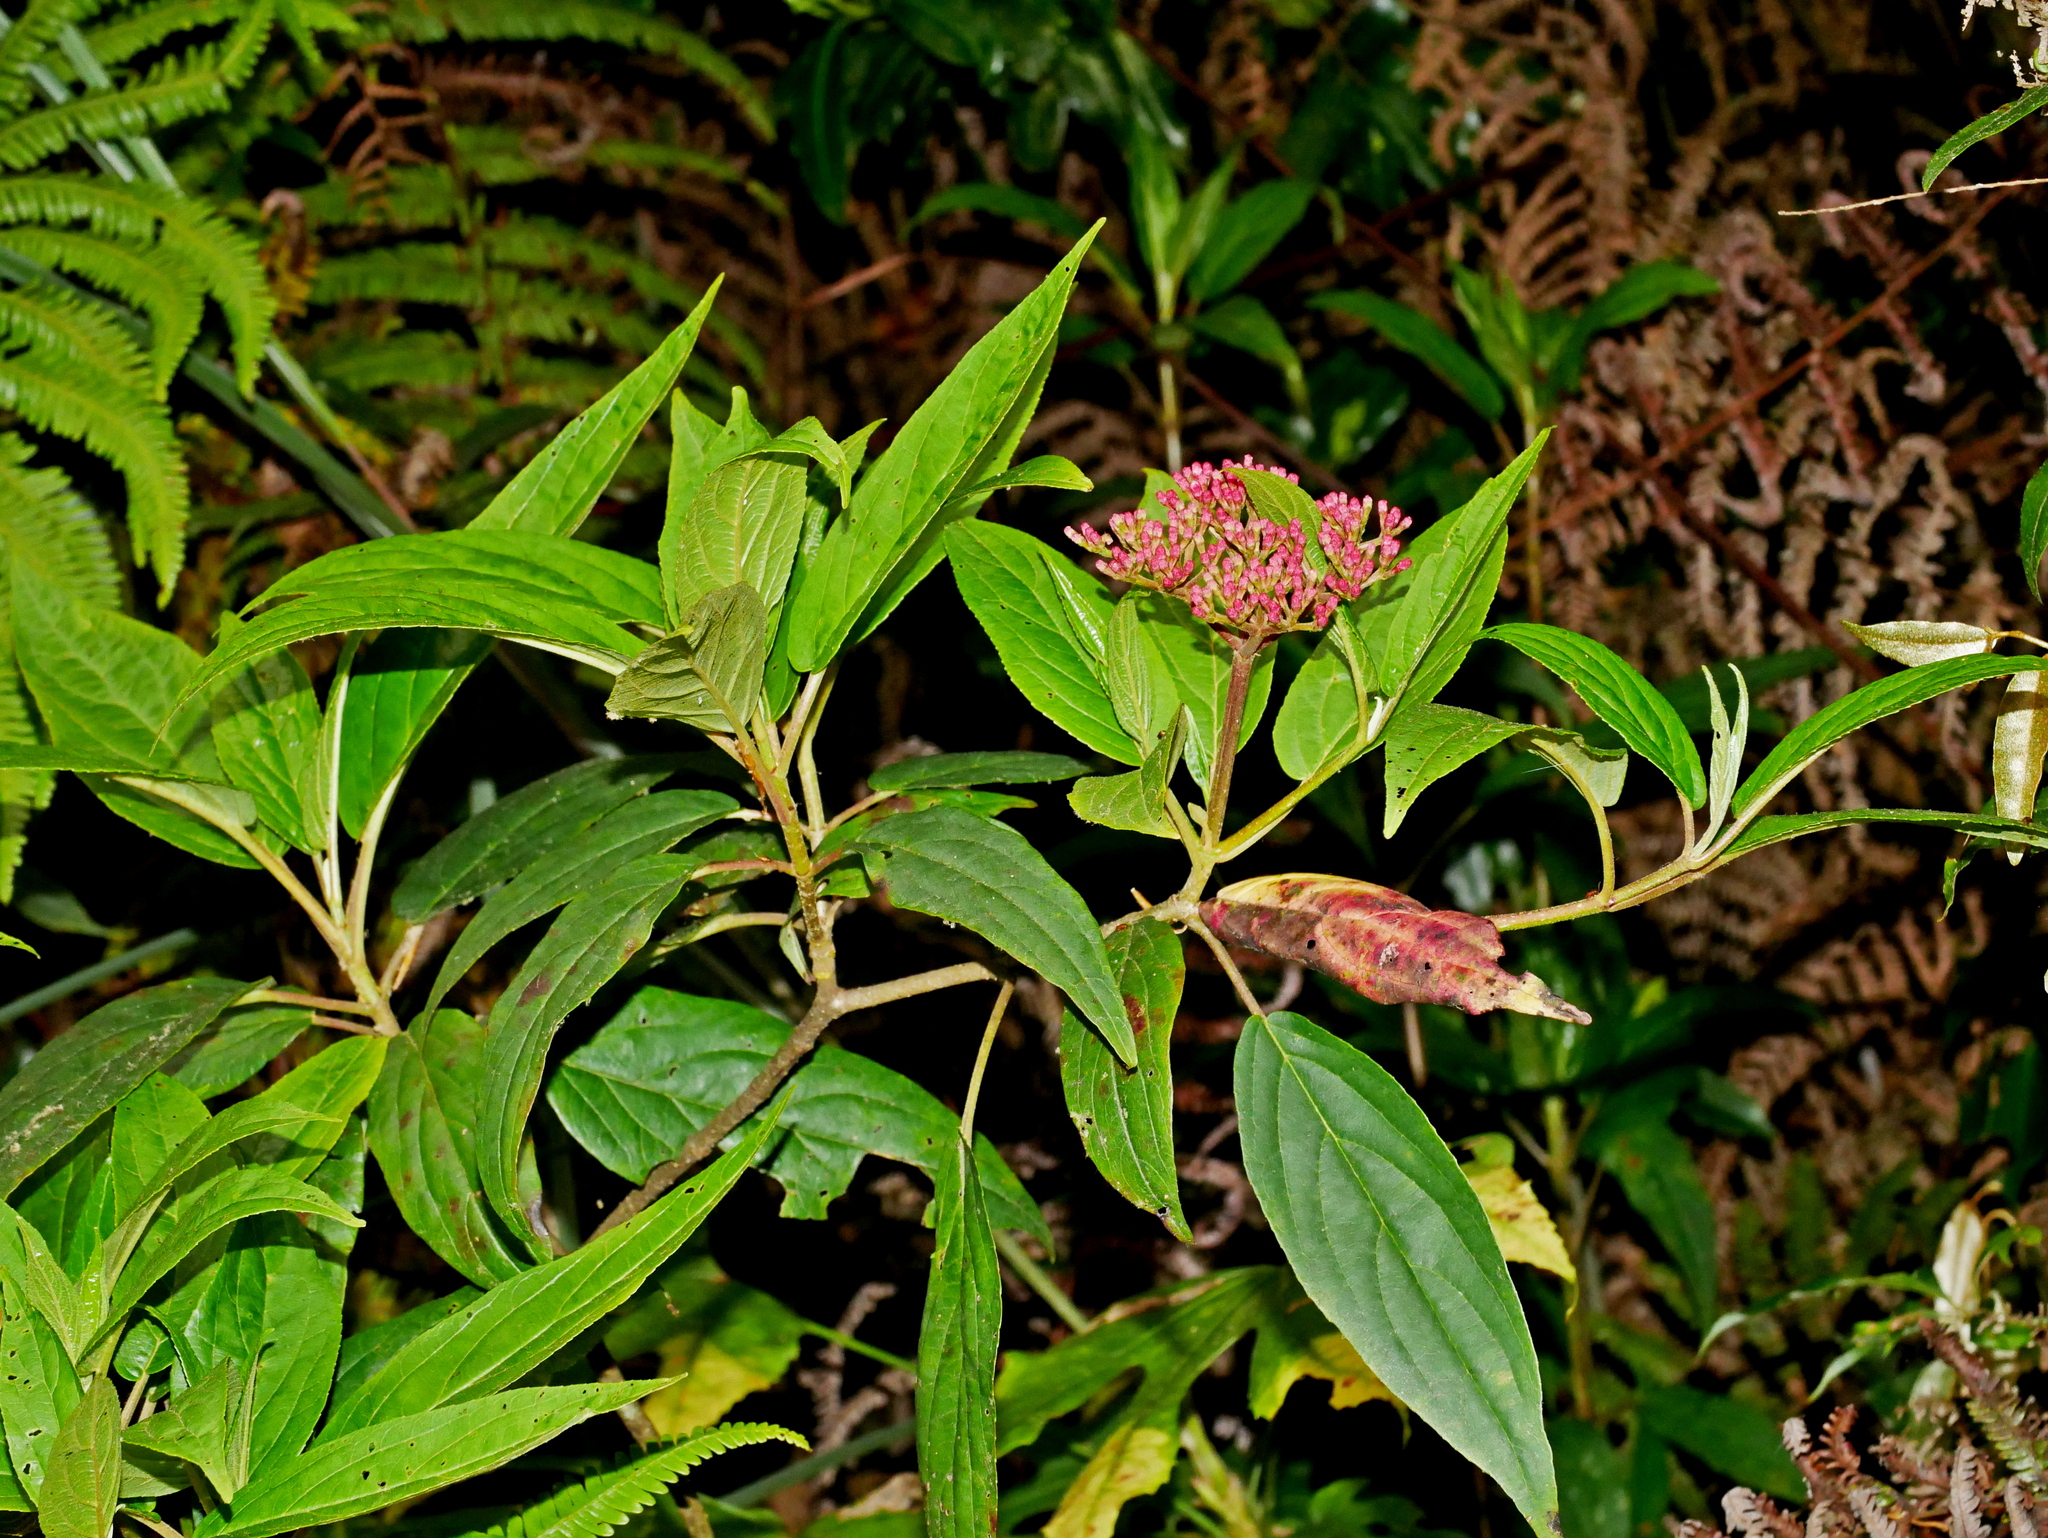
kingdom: Plantae
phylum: Tracheophyta
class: Magnoliopsida
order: Dipsacales
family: Viburnaceae
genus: Viburnum
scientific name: Viburnum urceolatum
